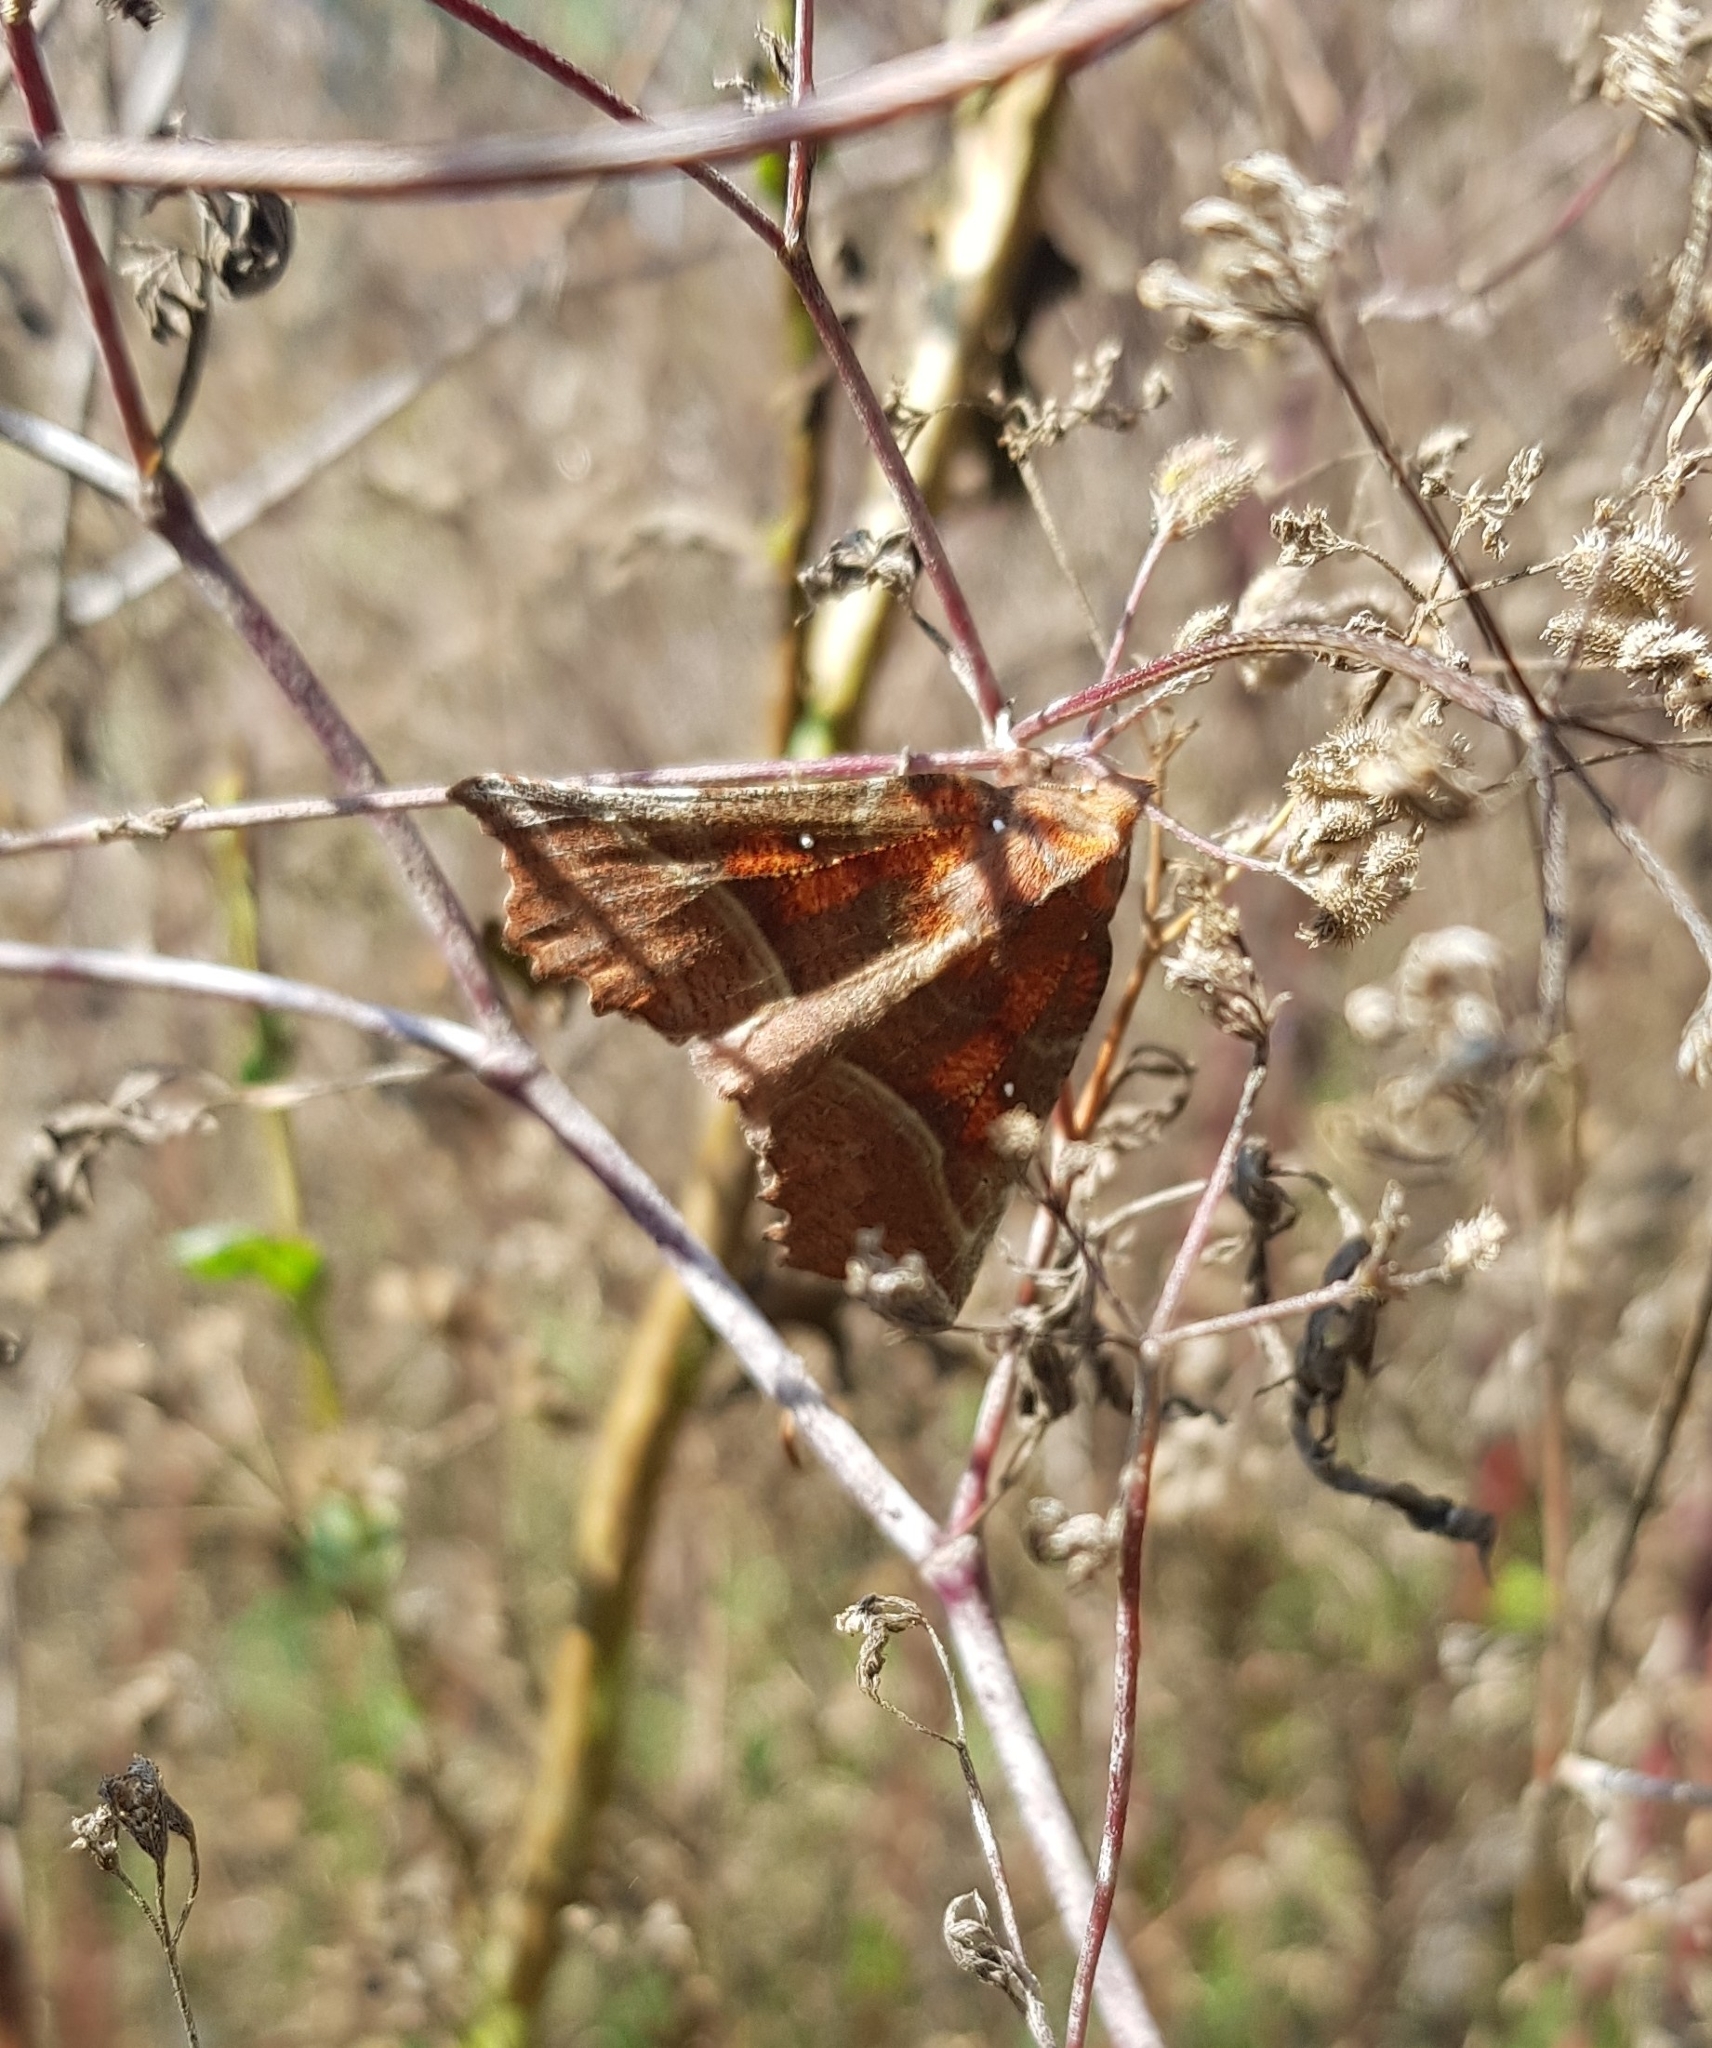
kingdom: Animalia
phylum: Arthropoda
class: Insecta
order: Lepidoptera
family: Erebidae
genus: Scoliopteryx
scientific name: Scoliopteryx libatrix
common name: Herald
